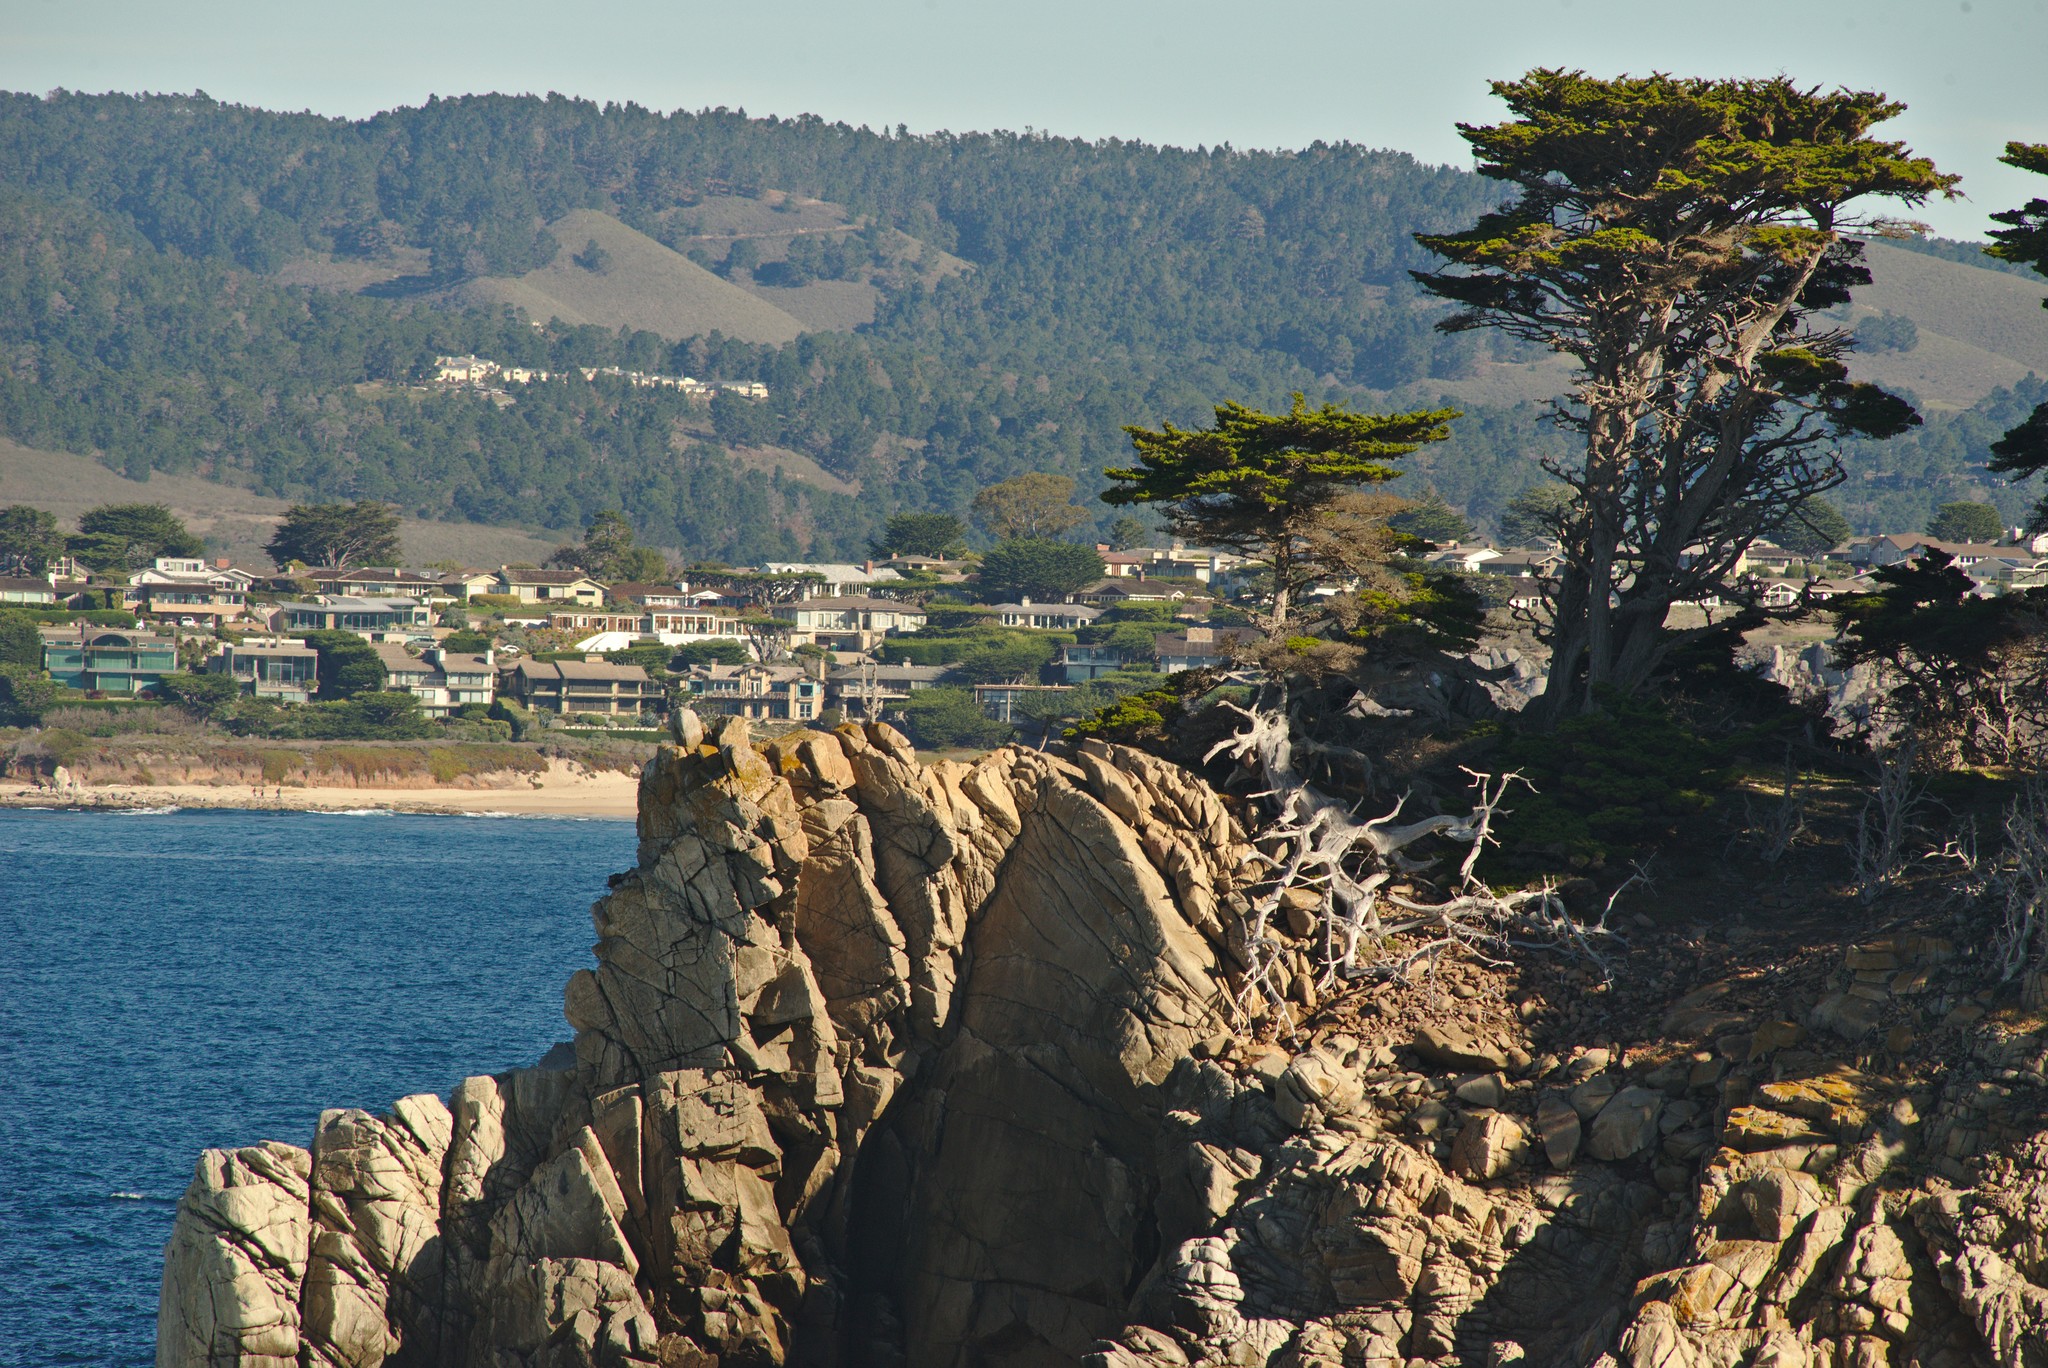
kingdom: Plantae
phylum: Tracheophyta
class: Pinopsida
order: Pinales
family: Cupressaceae
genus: Cupressus
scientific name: Cupressus macrocarpa
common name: Monterey cypress
